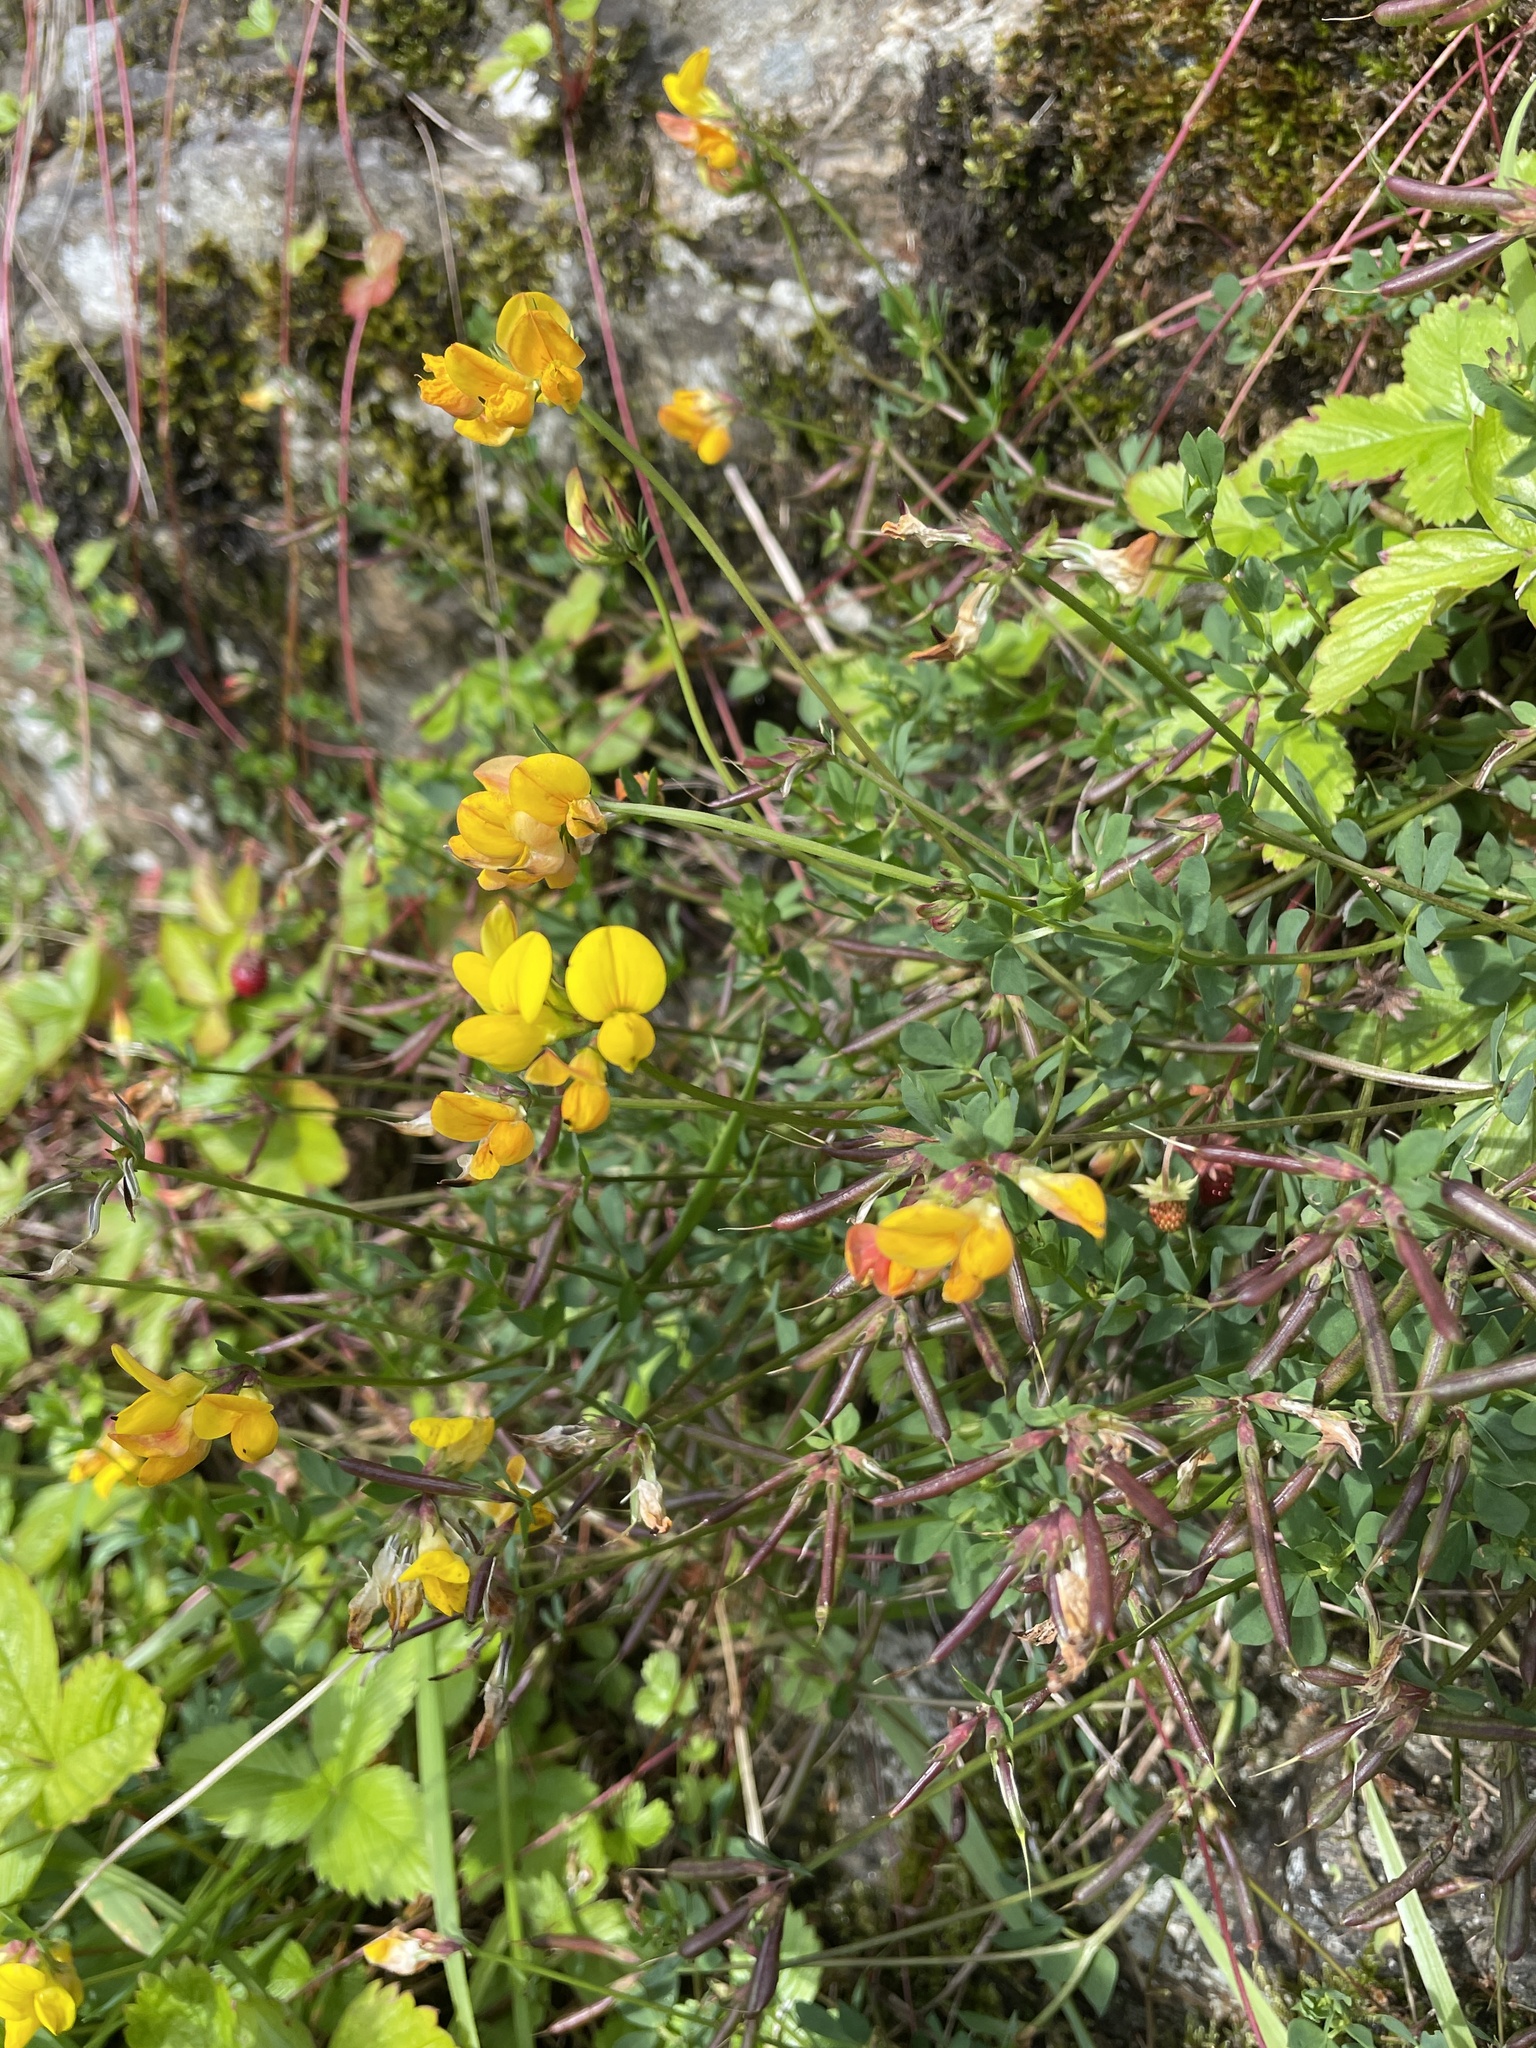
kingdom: Plantae
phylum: Tracheophyta
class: Magnoliopsida
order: Fabales
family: Fabaceae
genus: Lotus
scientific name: Lotus corniculatus
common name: Common bird's-foot-trefoil
